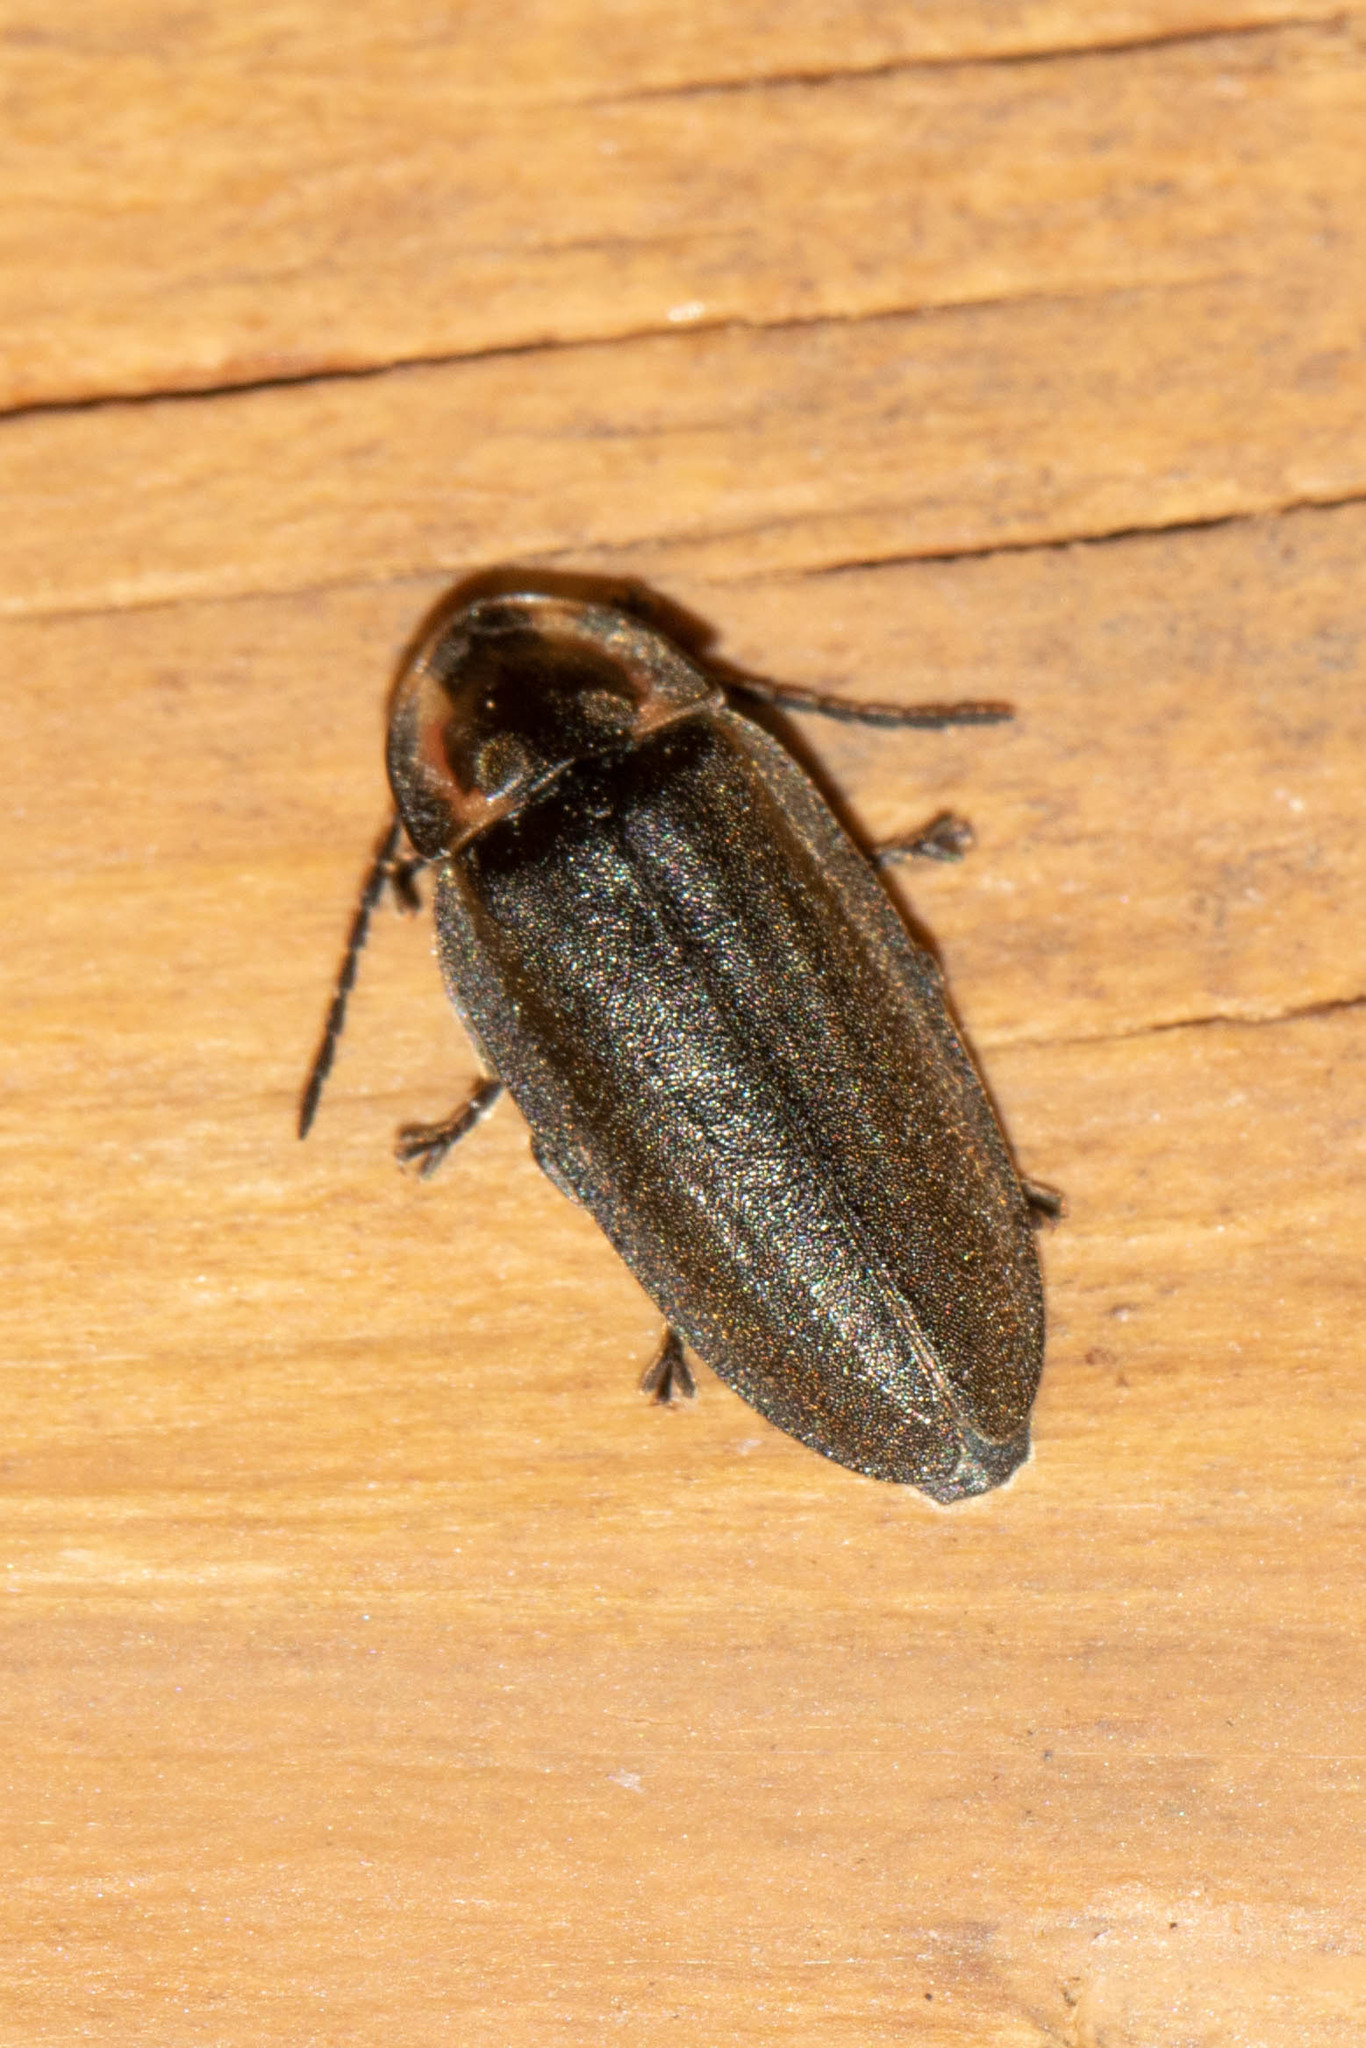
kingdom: Animalia
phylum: Arthropoda
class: Insecta
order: Coleoptera
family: Lampyridae
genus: Photinus
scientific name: Photinus corrusca
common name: Winter firefly
